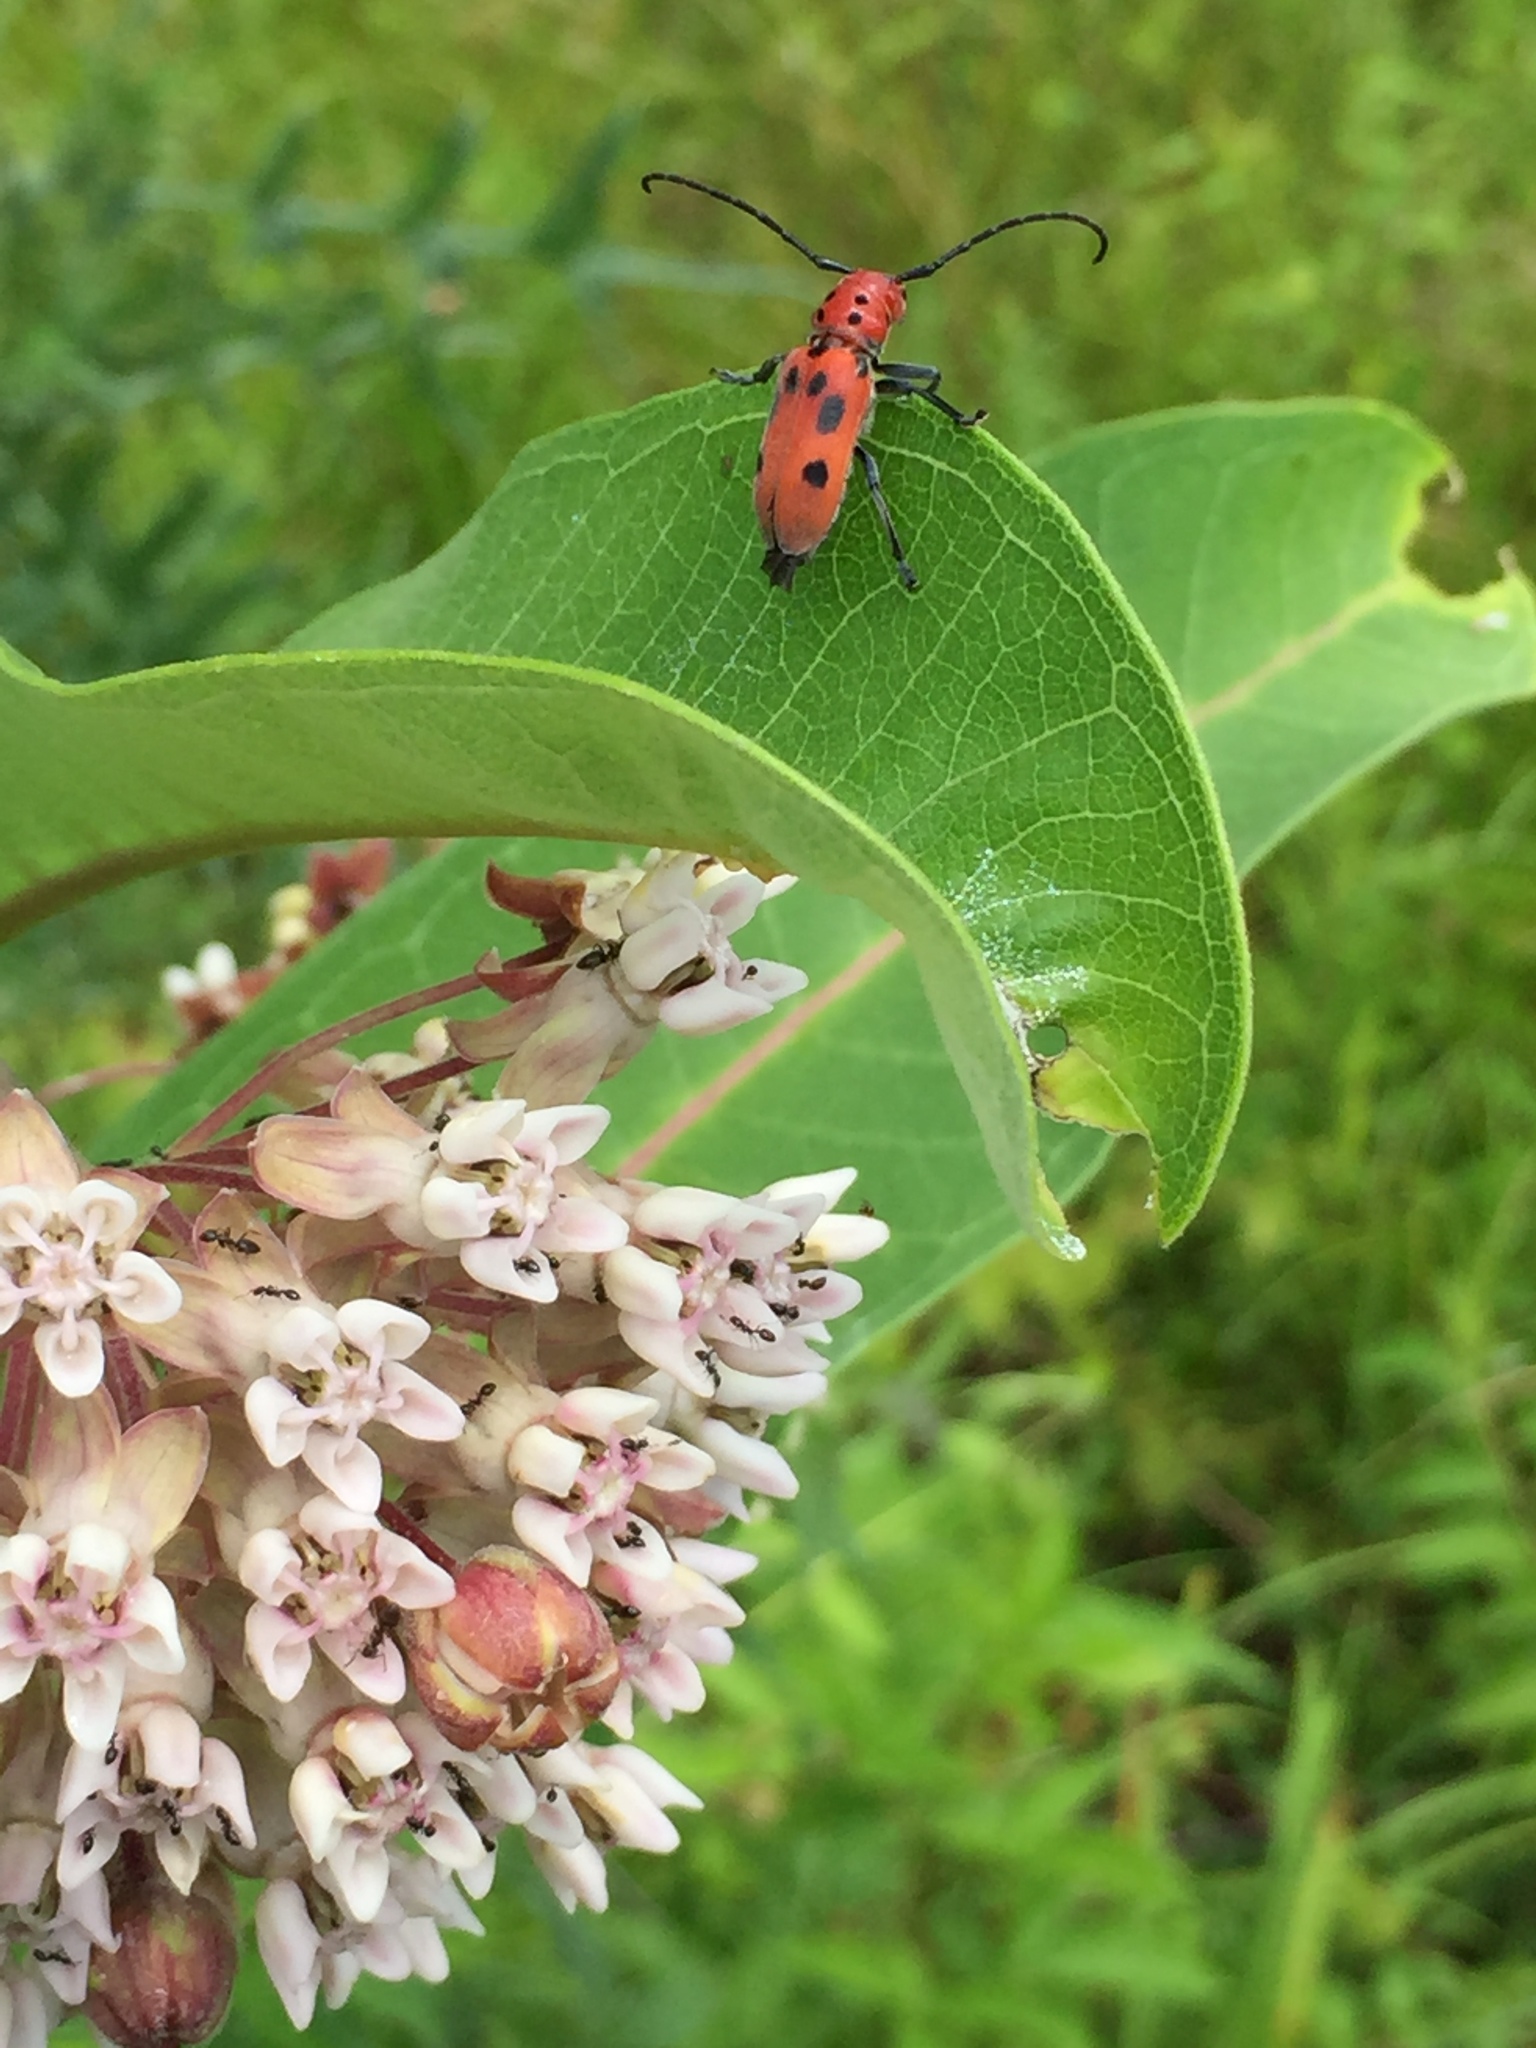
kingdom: Animalia
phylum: Arthropoda
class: Insecta
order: Coleoptera
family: Cerambycidae
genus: Tetraopes
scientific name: Tetraopes tetrophthalmus
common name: Red milkweed beetle
